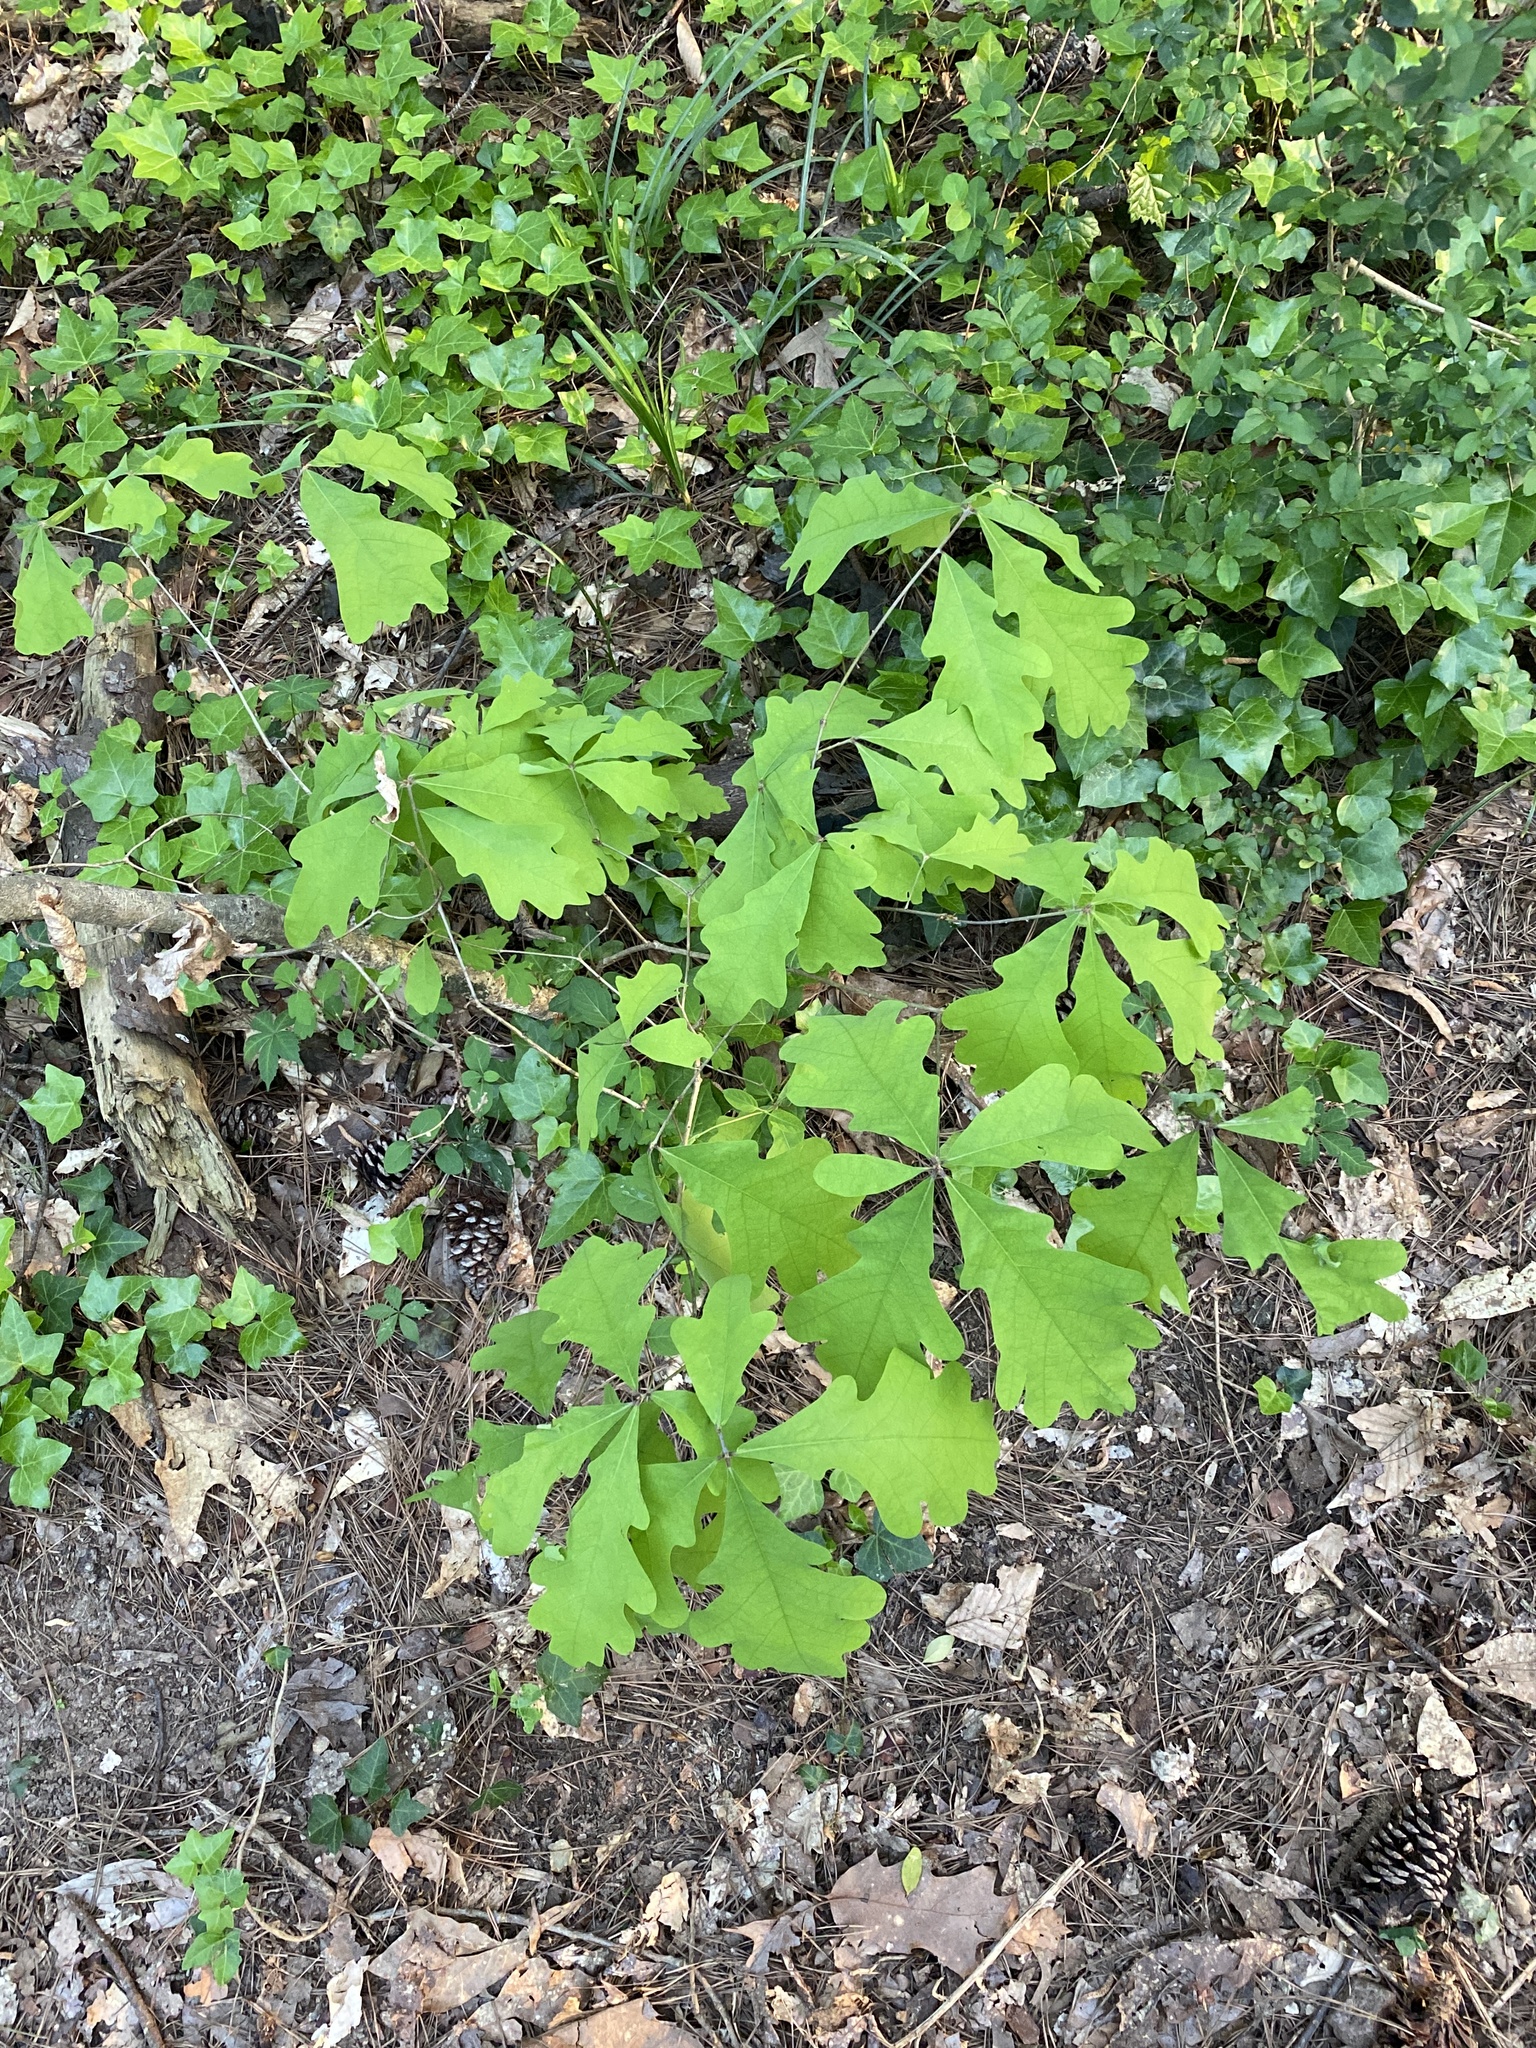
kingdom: Plantae
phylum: Tracheophyta
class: Magnoliopsida
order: Fagales
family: Fagaceae
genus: Quercus
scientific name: Quercus alba
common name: White oak
